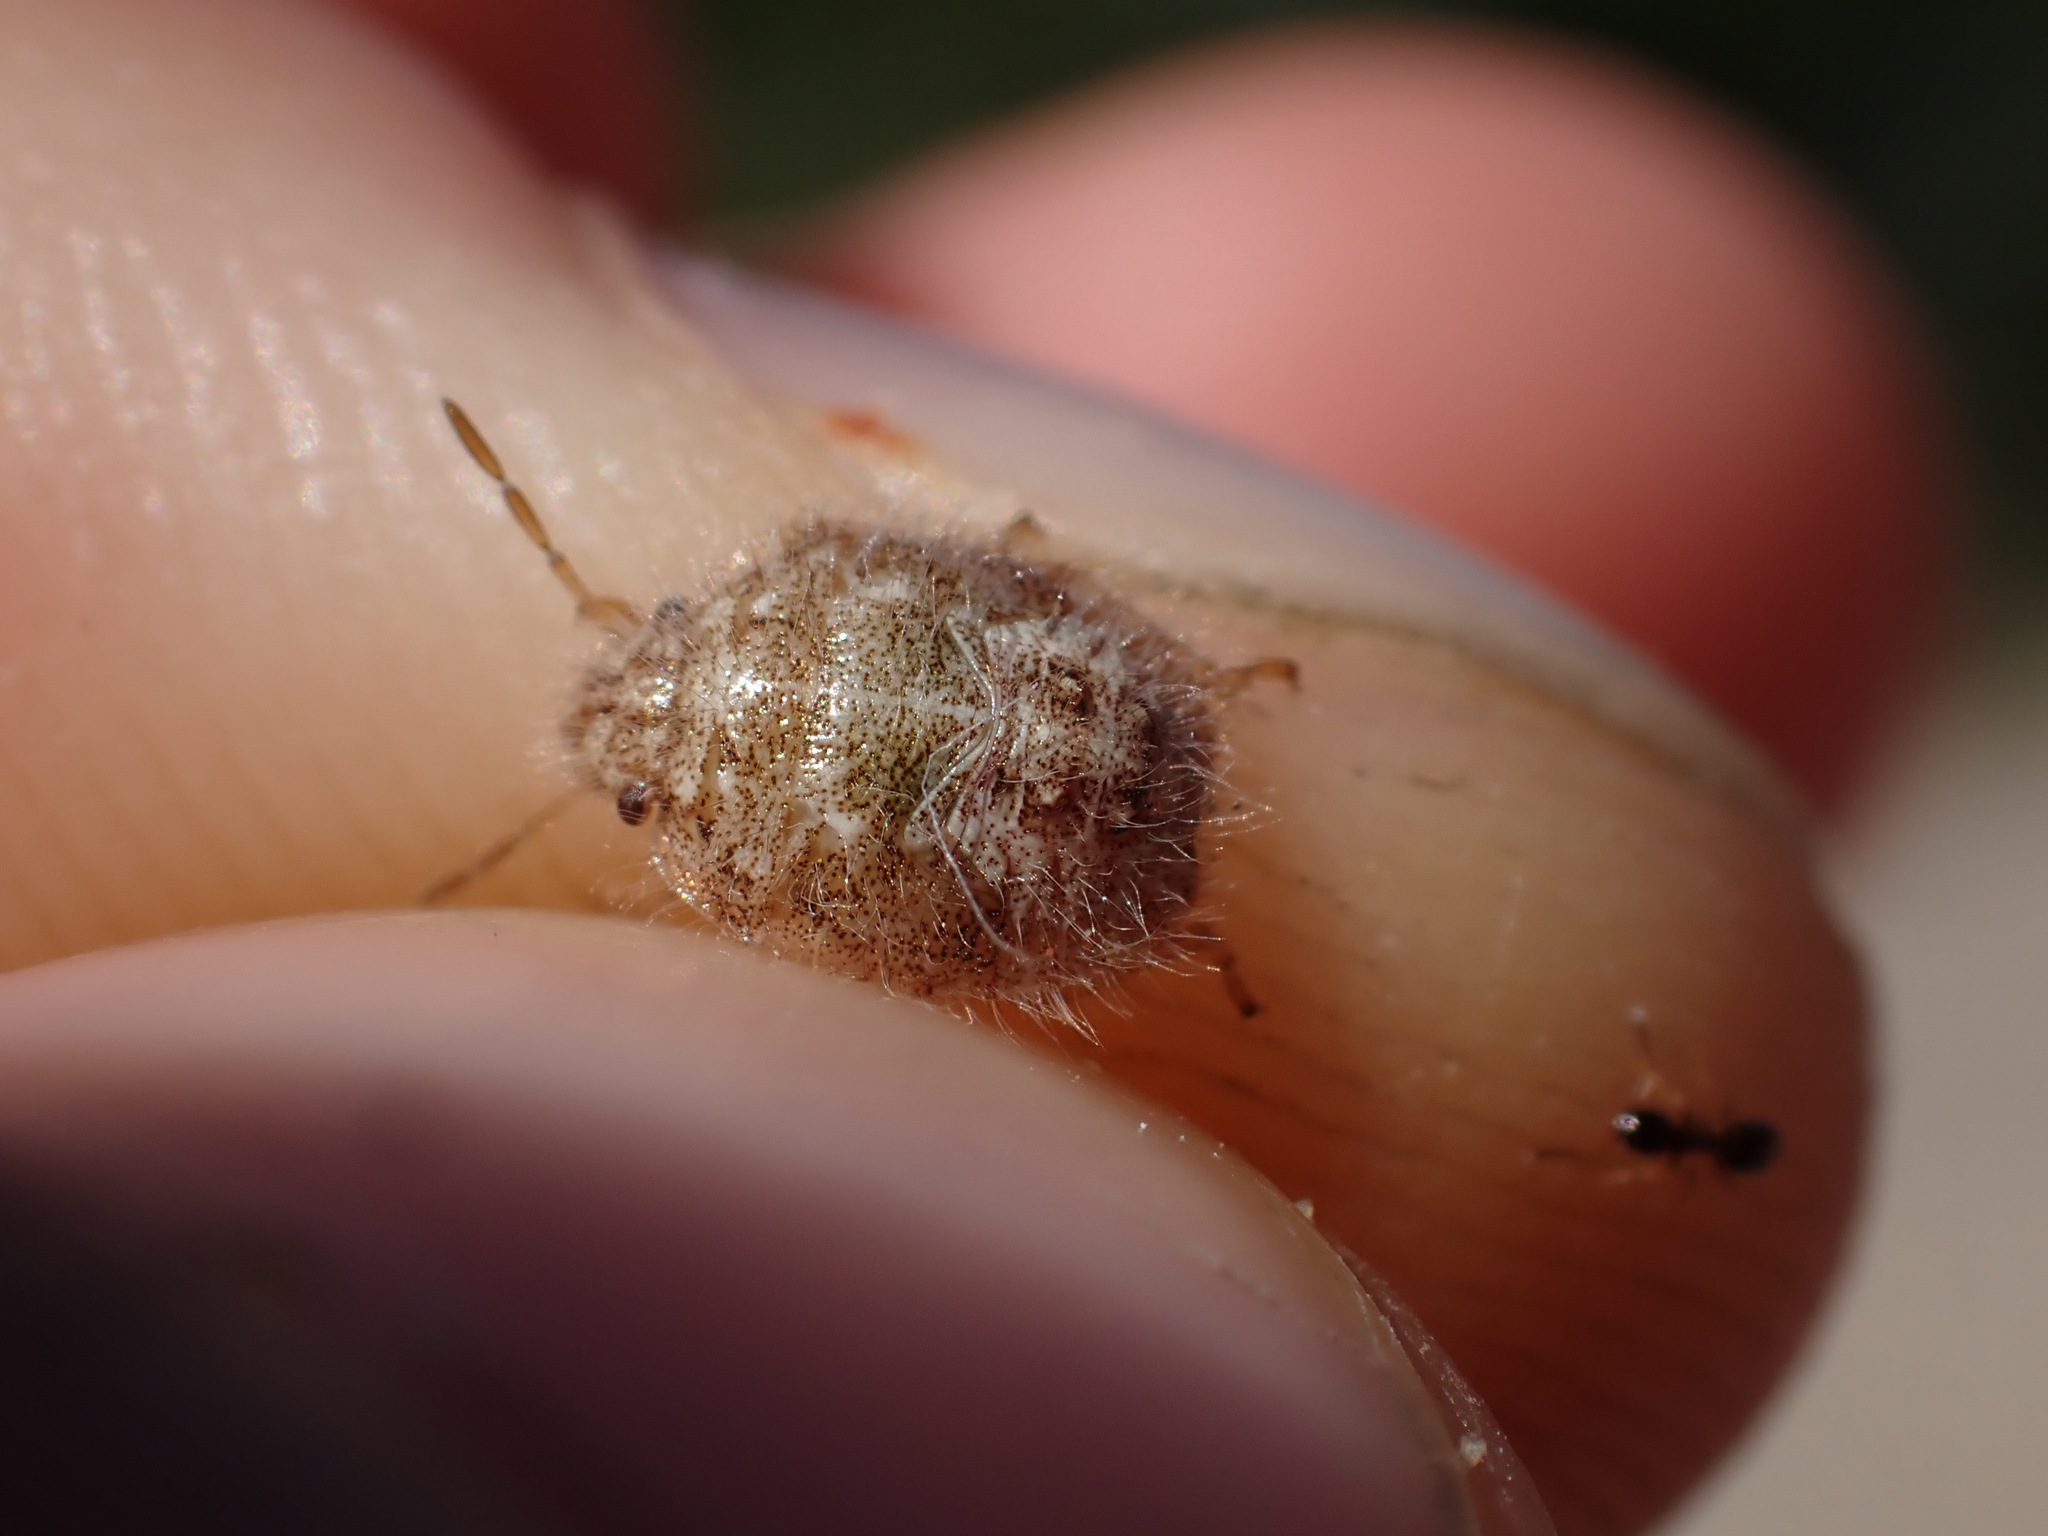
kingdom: Animalia
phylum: Arthropoda
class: Insecta
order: Hemiptera
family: Pentatomidae
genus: Staria
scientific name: Staria lunata
